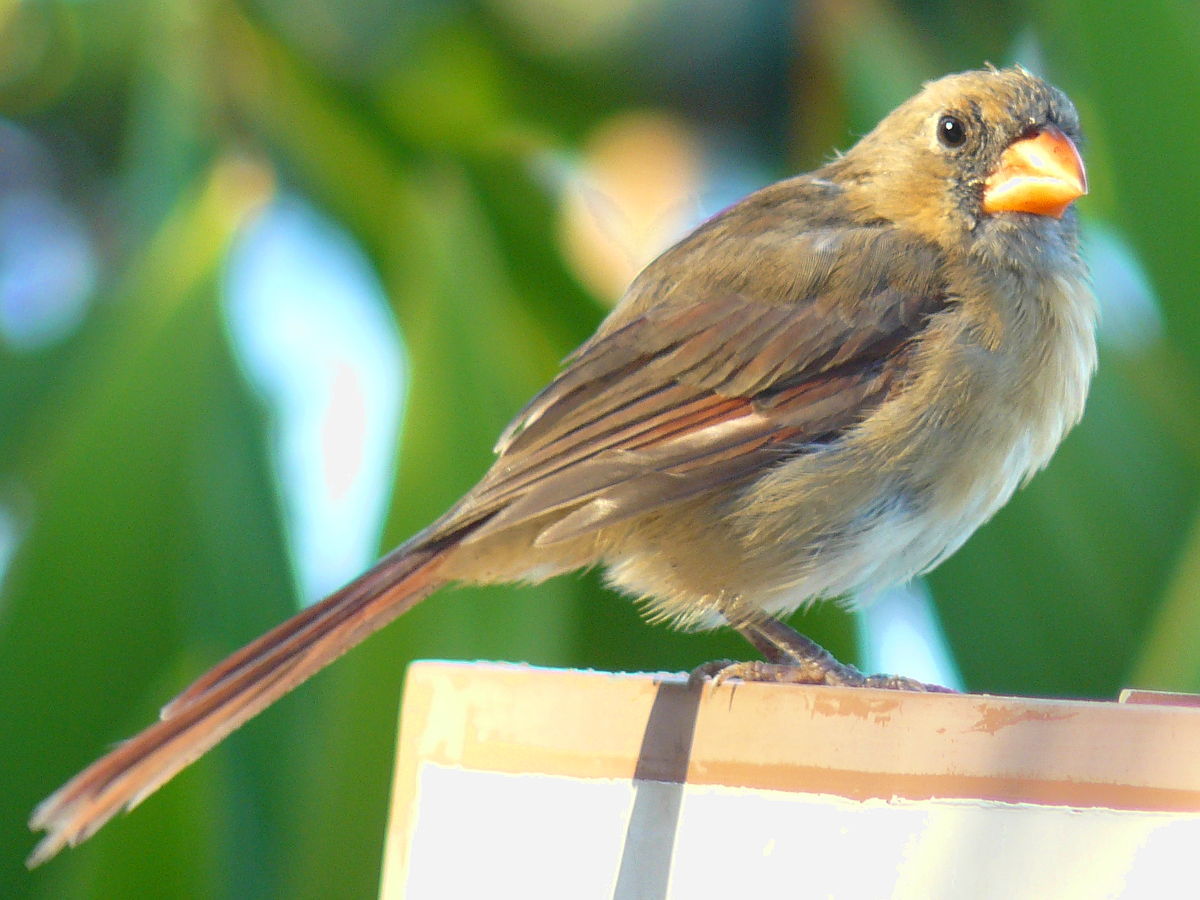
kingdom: Animalia
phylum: Chordata
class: Aves
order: Passeriformes
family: Cardinalidae
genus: Cardinalis
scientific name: Cardinalis cardinalis
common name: Northern cardinal
